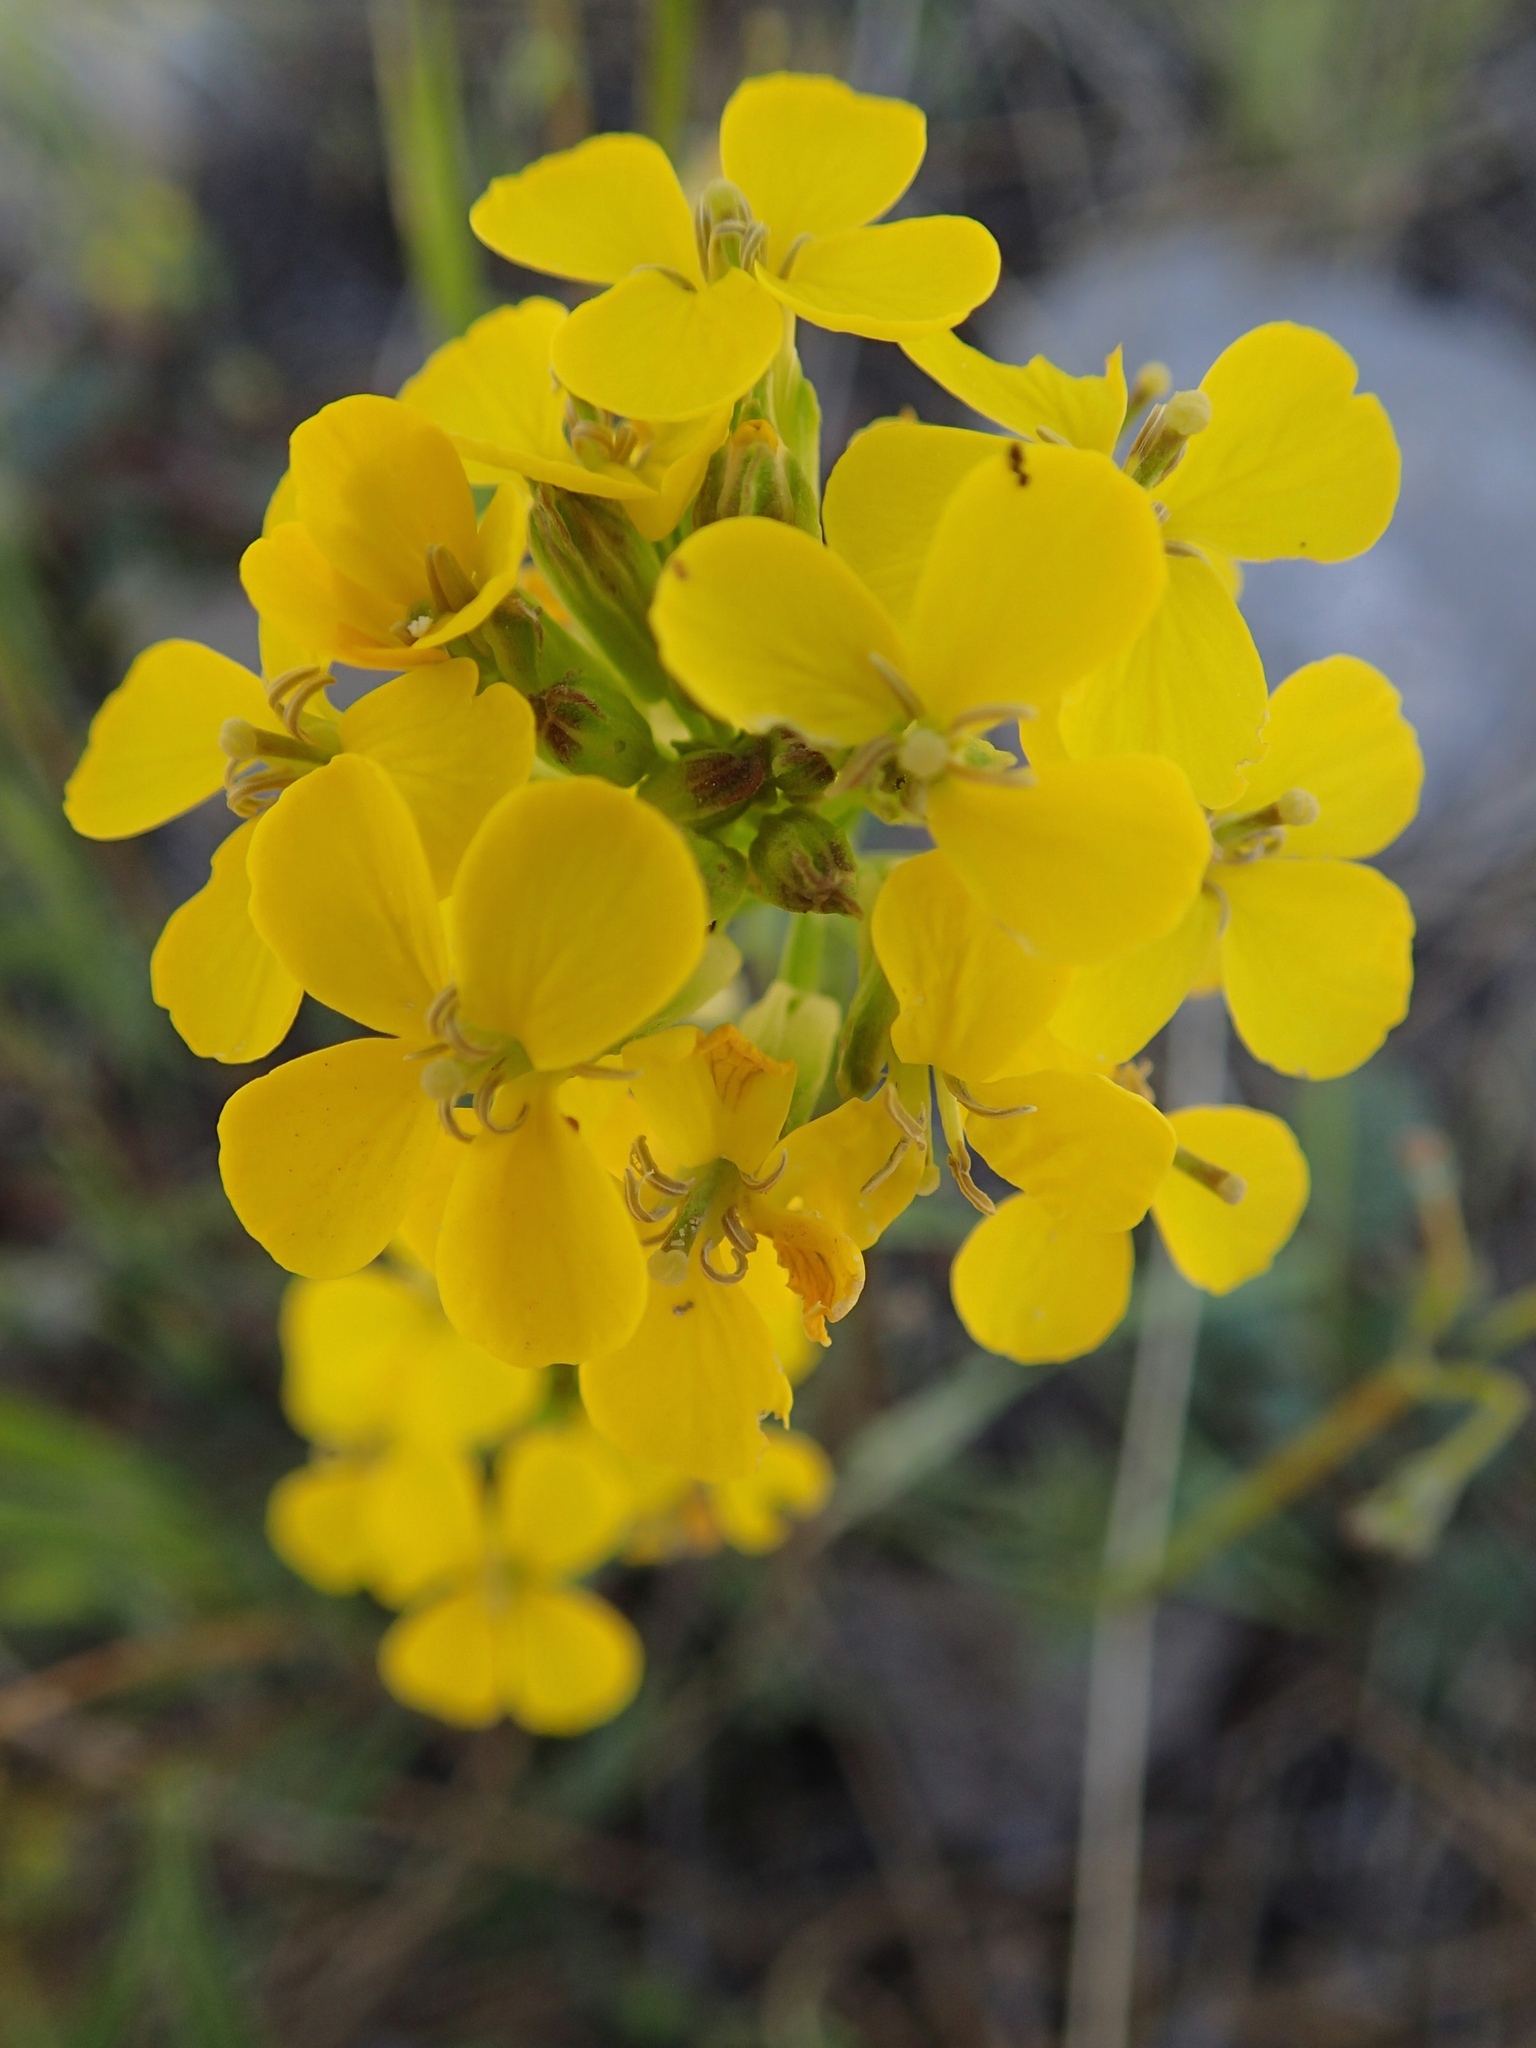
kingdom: Plantae
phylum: Tracheophyta
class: Magnoliopsida
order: Brassicales
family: Brassicaceae
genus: Erysimum
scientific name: Erysimum capitatum
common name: Western wallflower
